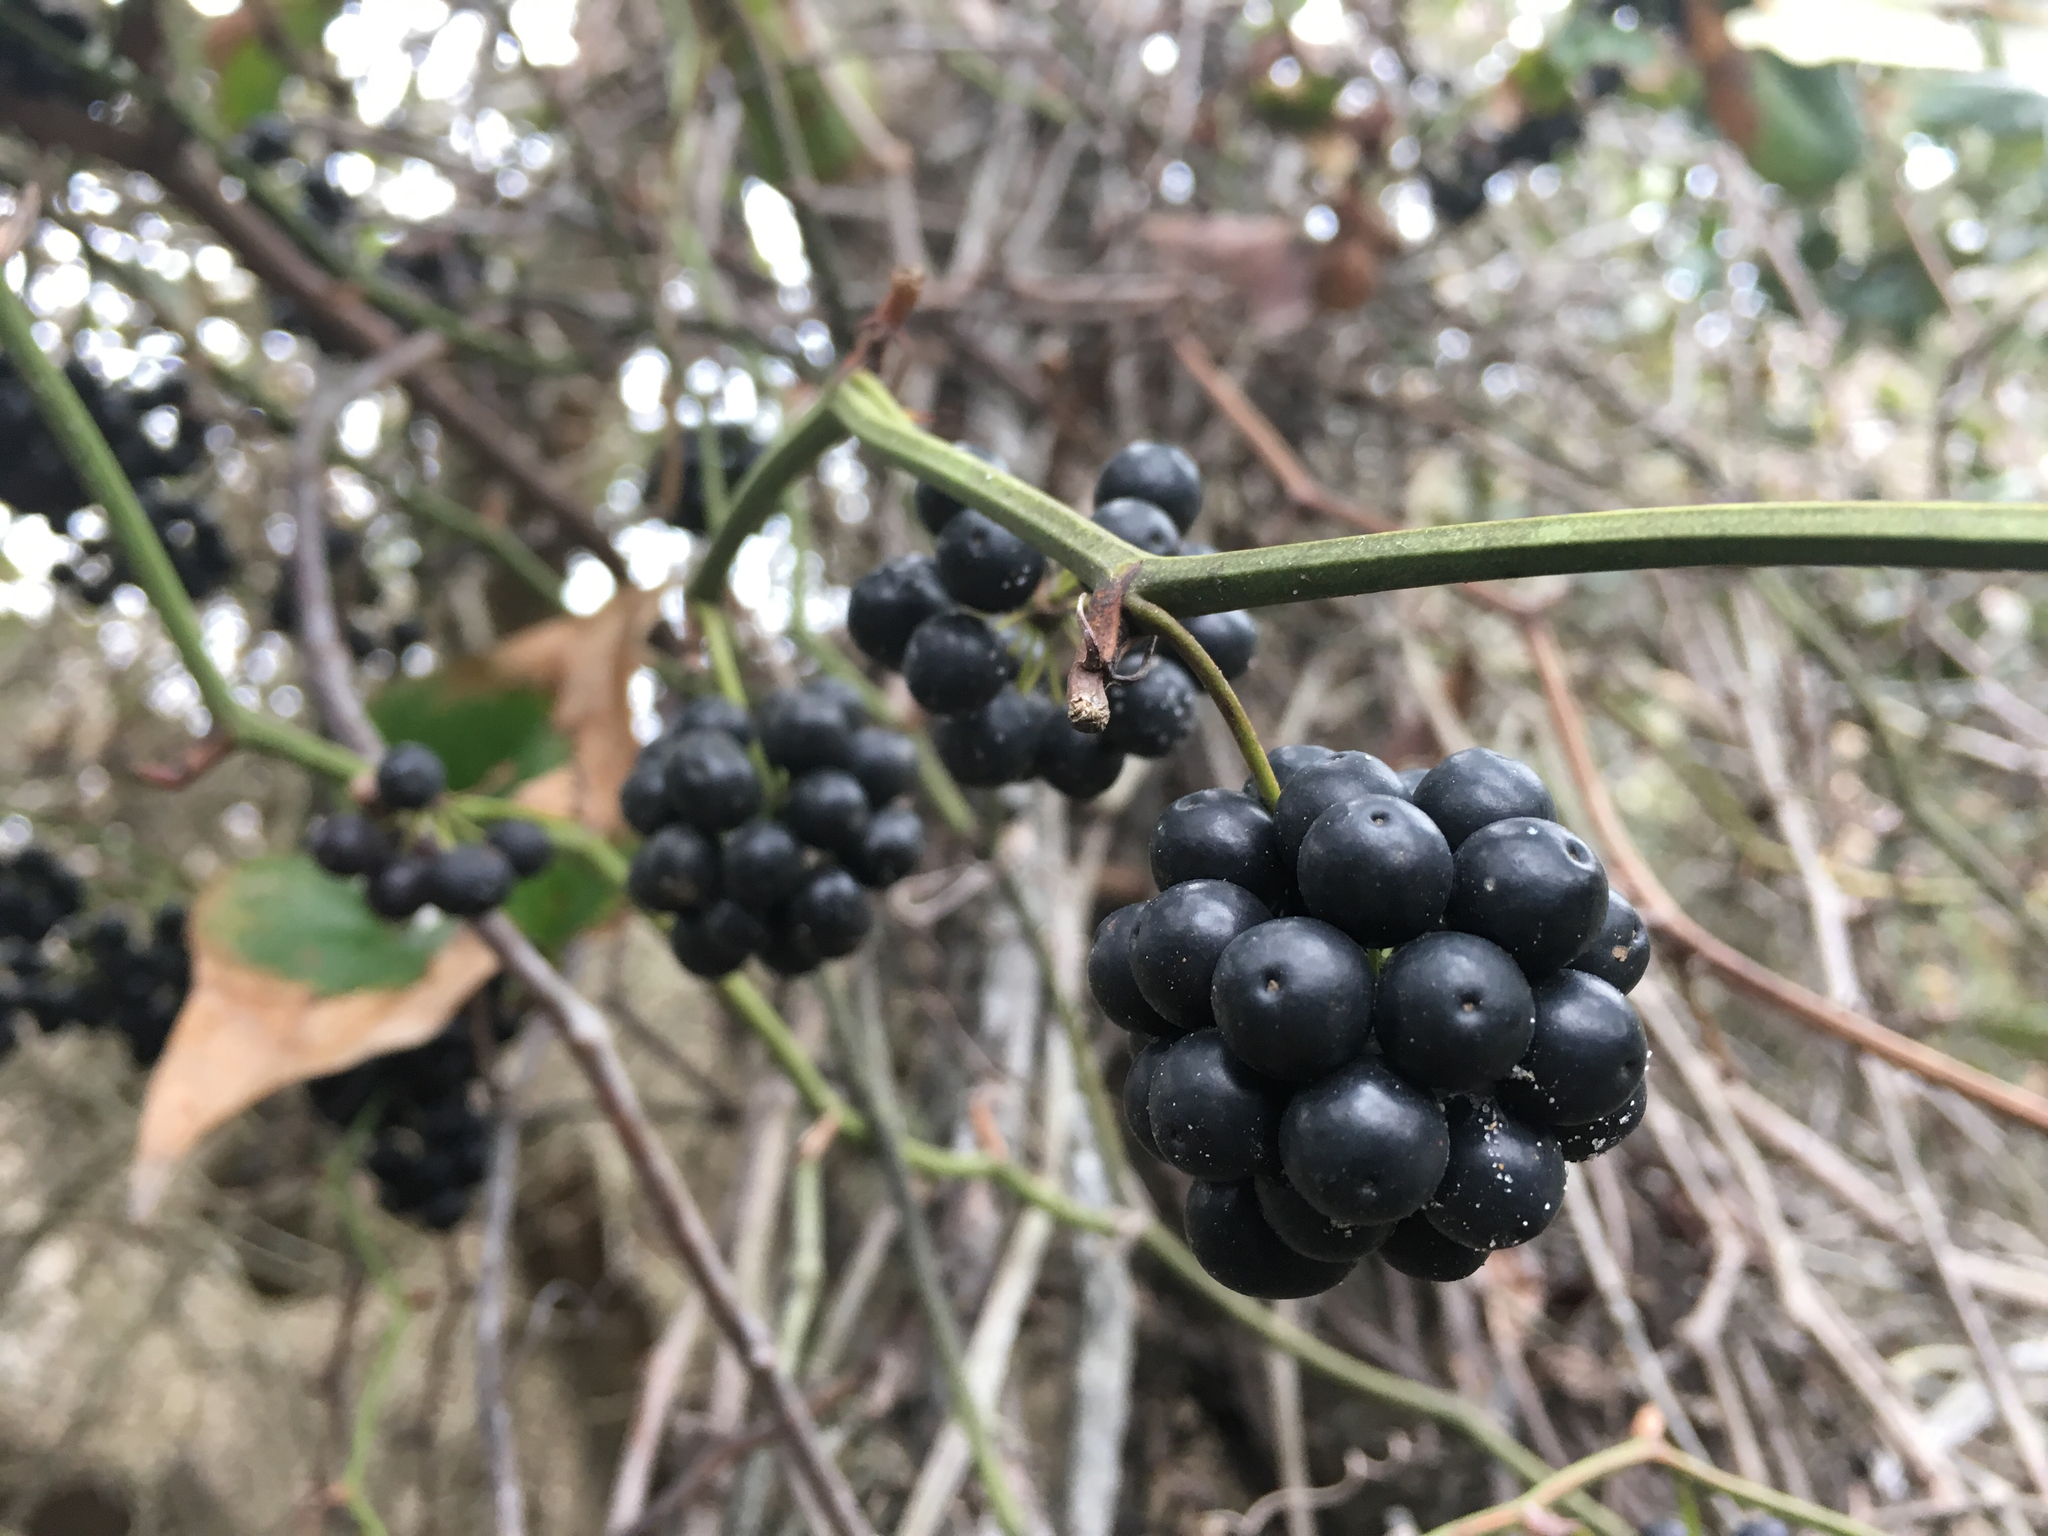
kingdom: Plantae
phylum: Tracheophyta
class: Liliopsida
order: Liliales
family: Smilacaceae
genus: Smilax
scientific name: Smilax bona-nox
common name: Catbrier
